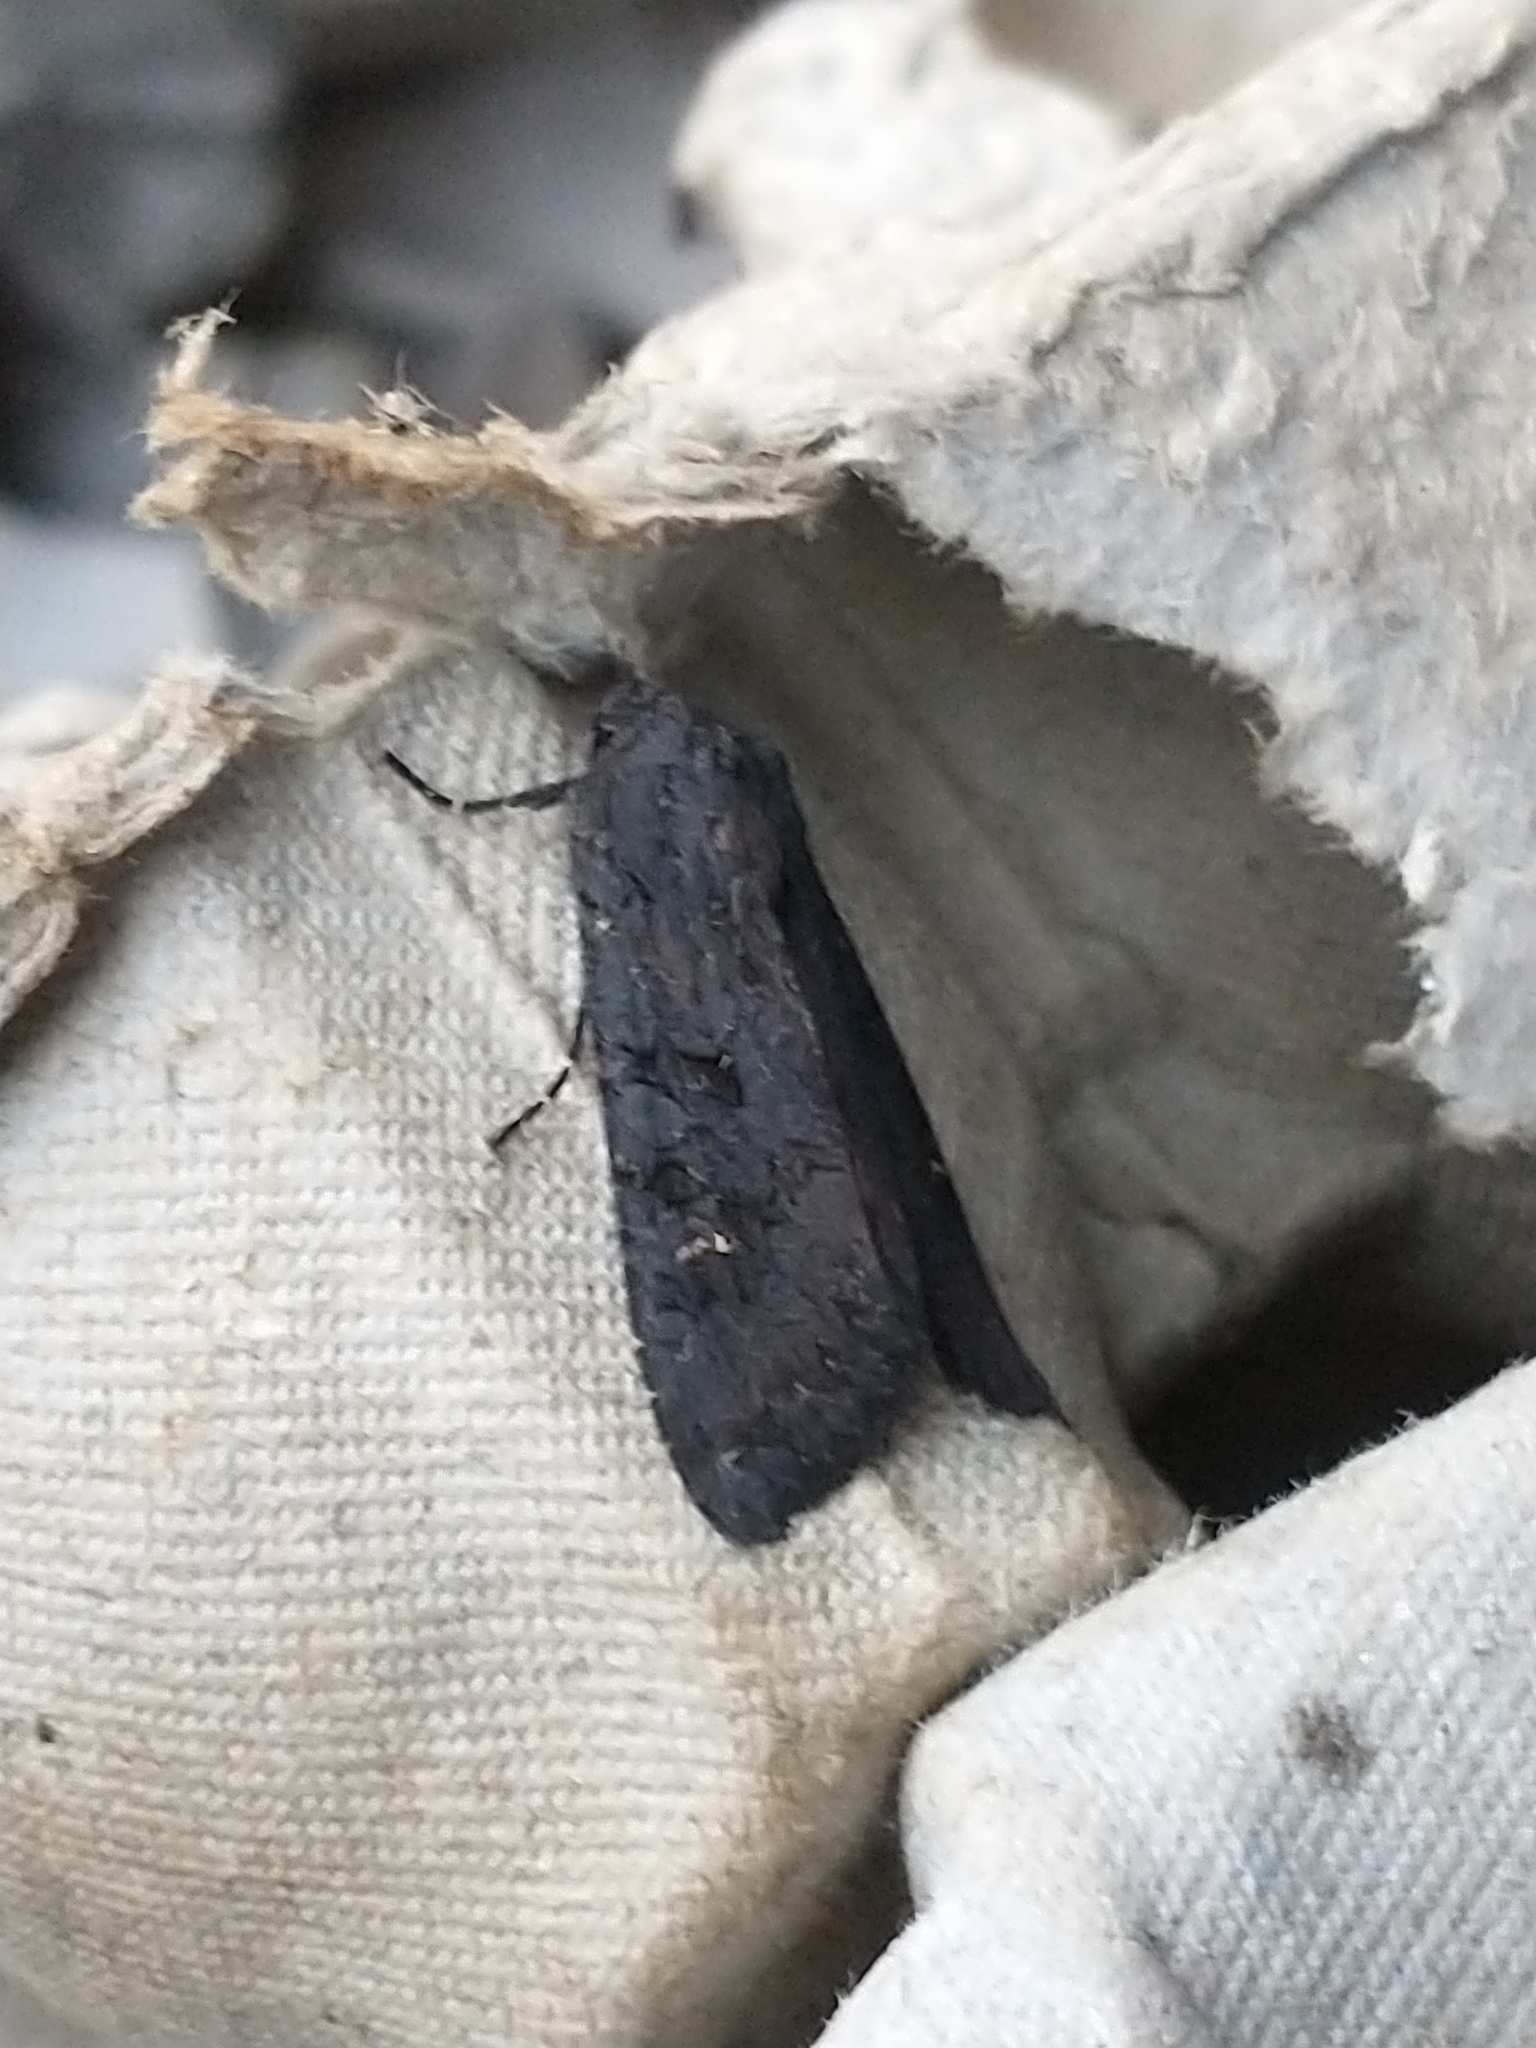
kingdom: Animalia
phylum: Arthropoda
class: Insecta
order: Lepidoptera
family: Noctuidae
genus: Aporophyla
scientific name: Aporophyla nigra
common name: Black rustic
